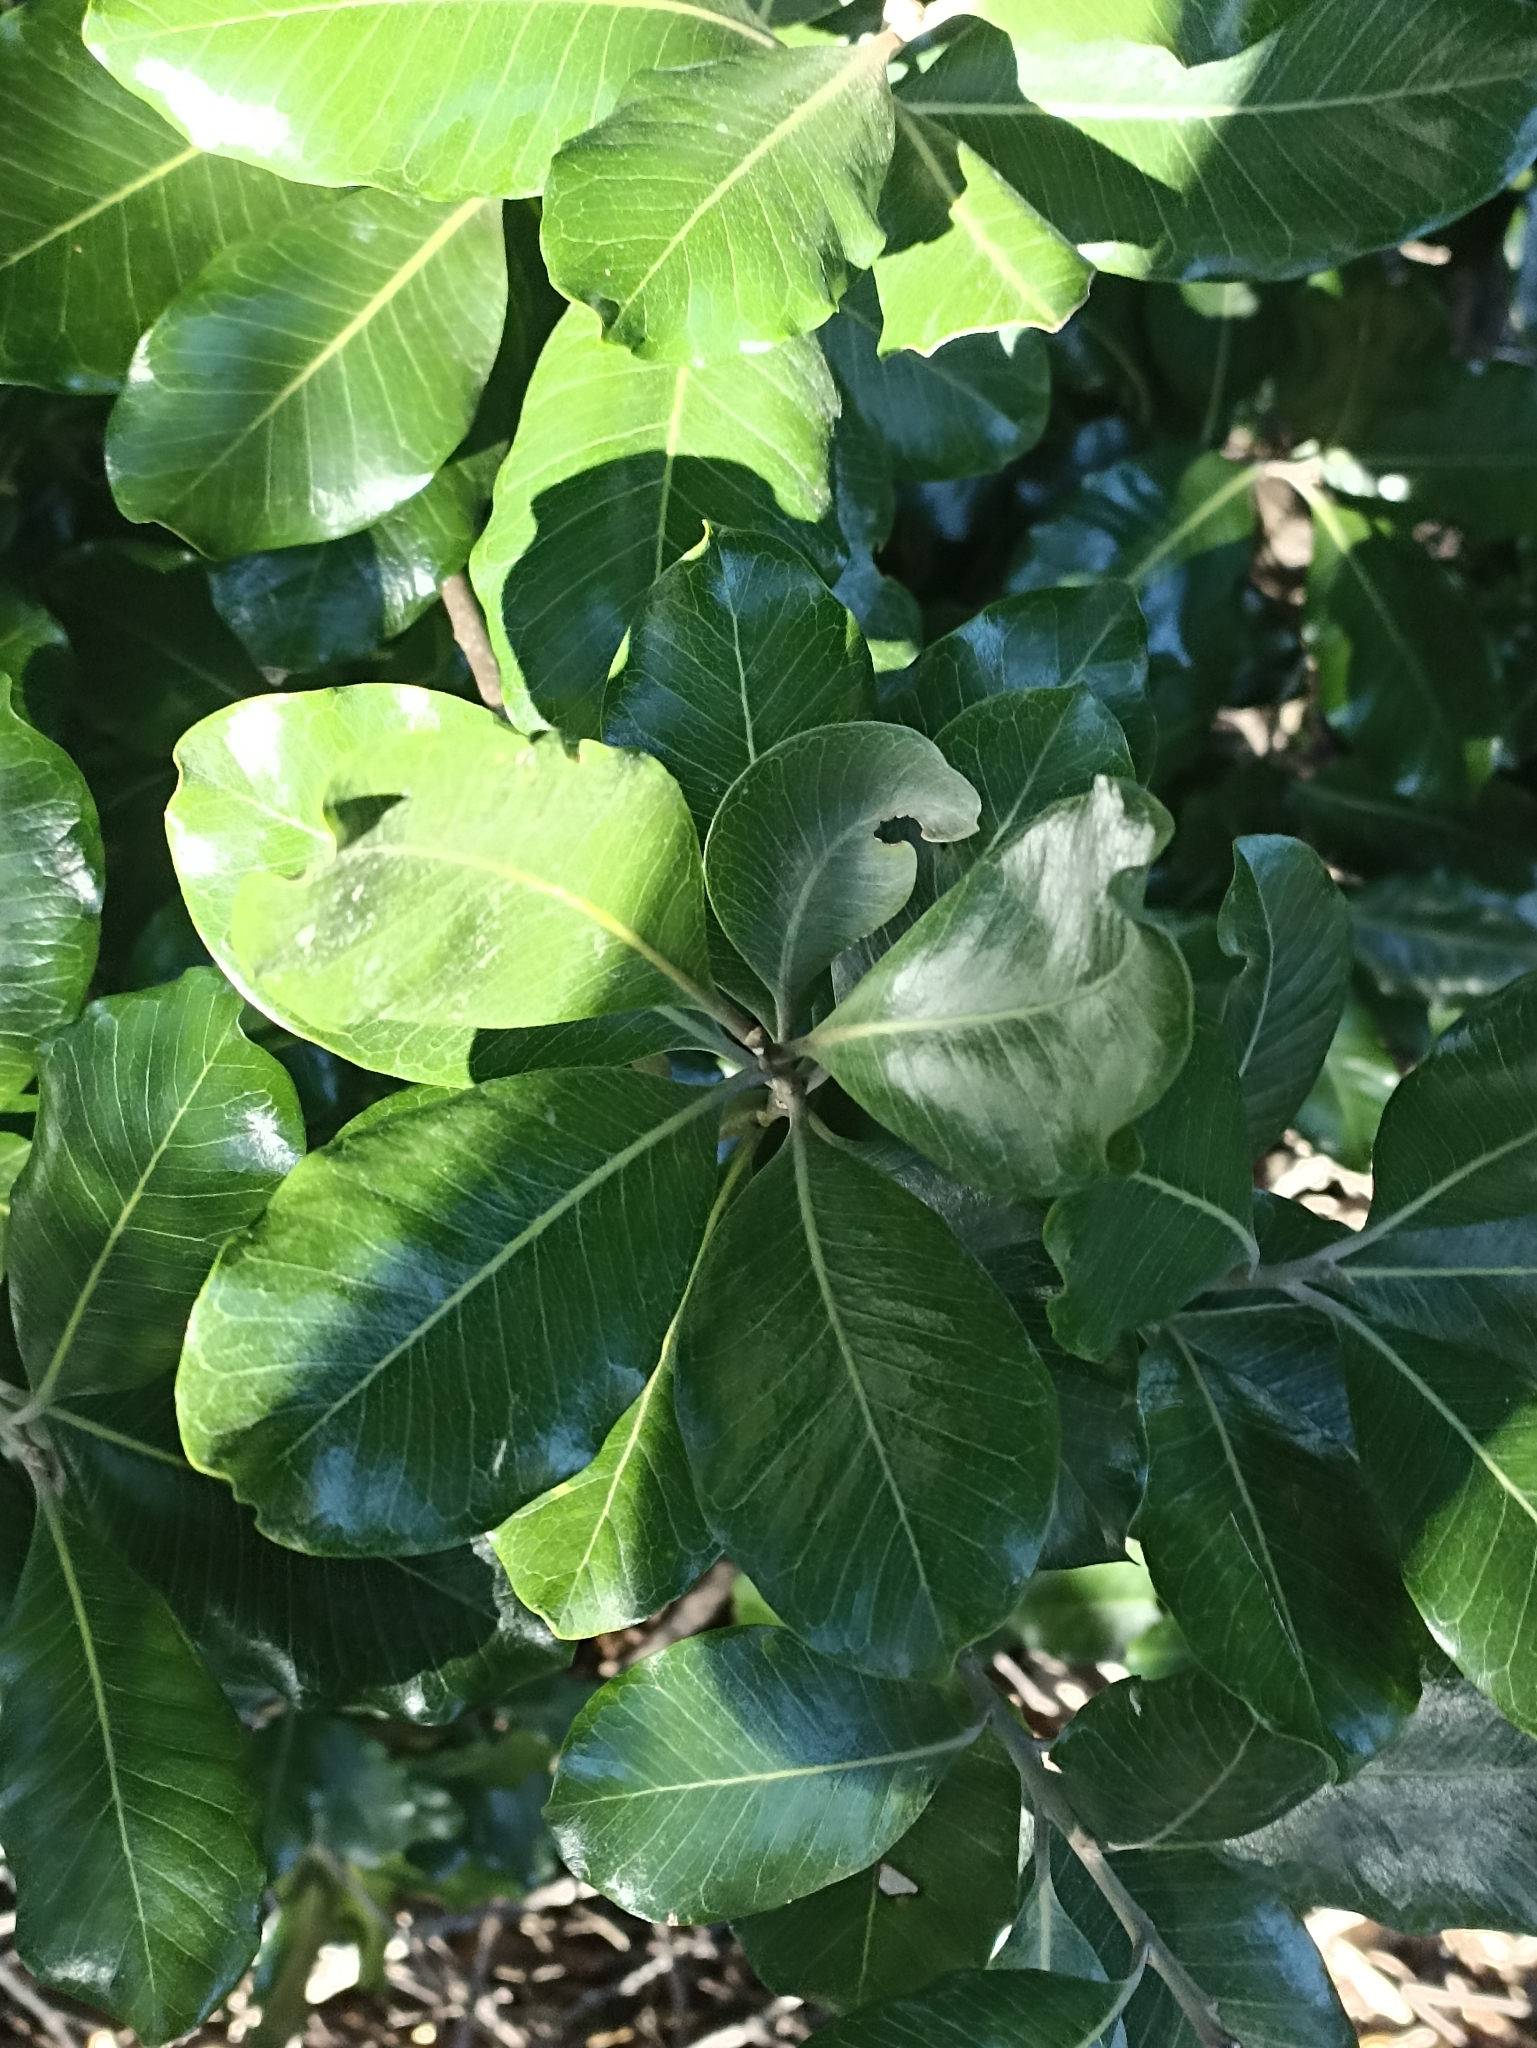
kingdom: Plantae
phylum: Tracheophyta
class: Magnoliopsida
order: Ericales
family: Sapotaceae
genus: Planchonella
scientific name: Planchonella costata
